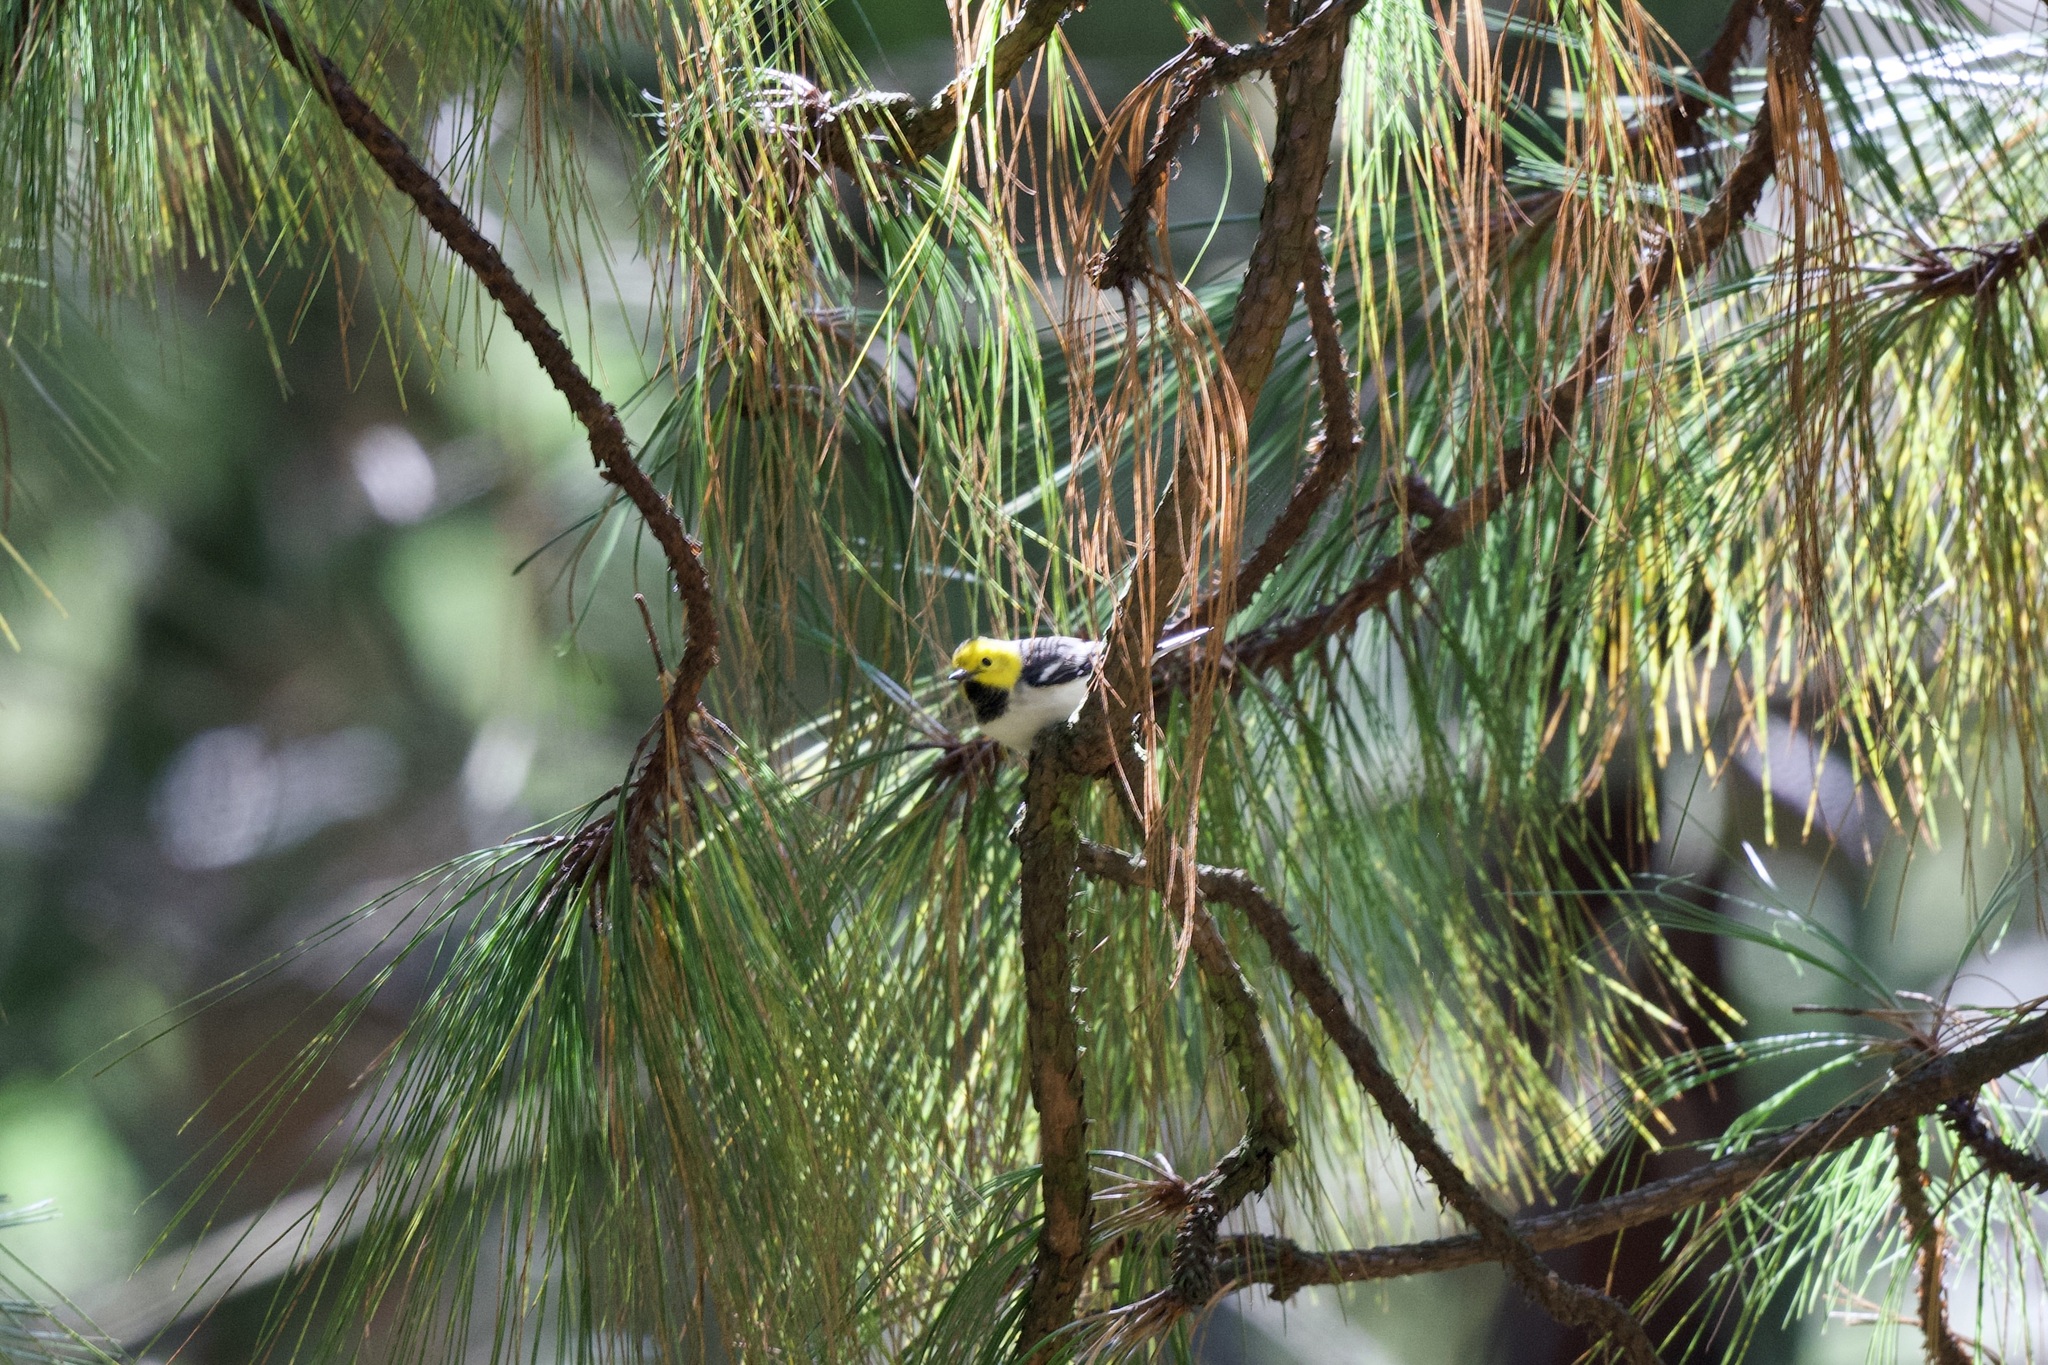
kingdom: Animalia
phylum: Chordata
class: Aves
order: Passeriformes
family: Parulidae
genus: Setophaga
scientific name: Setophaga occidentalis
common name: Hermit warbler
